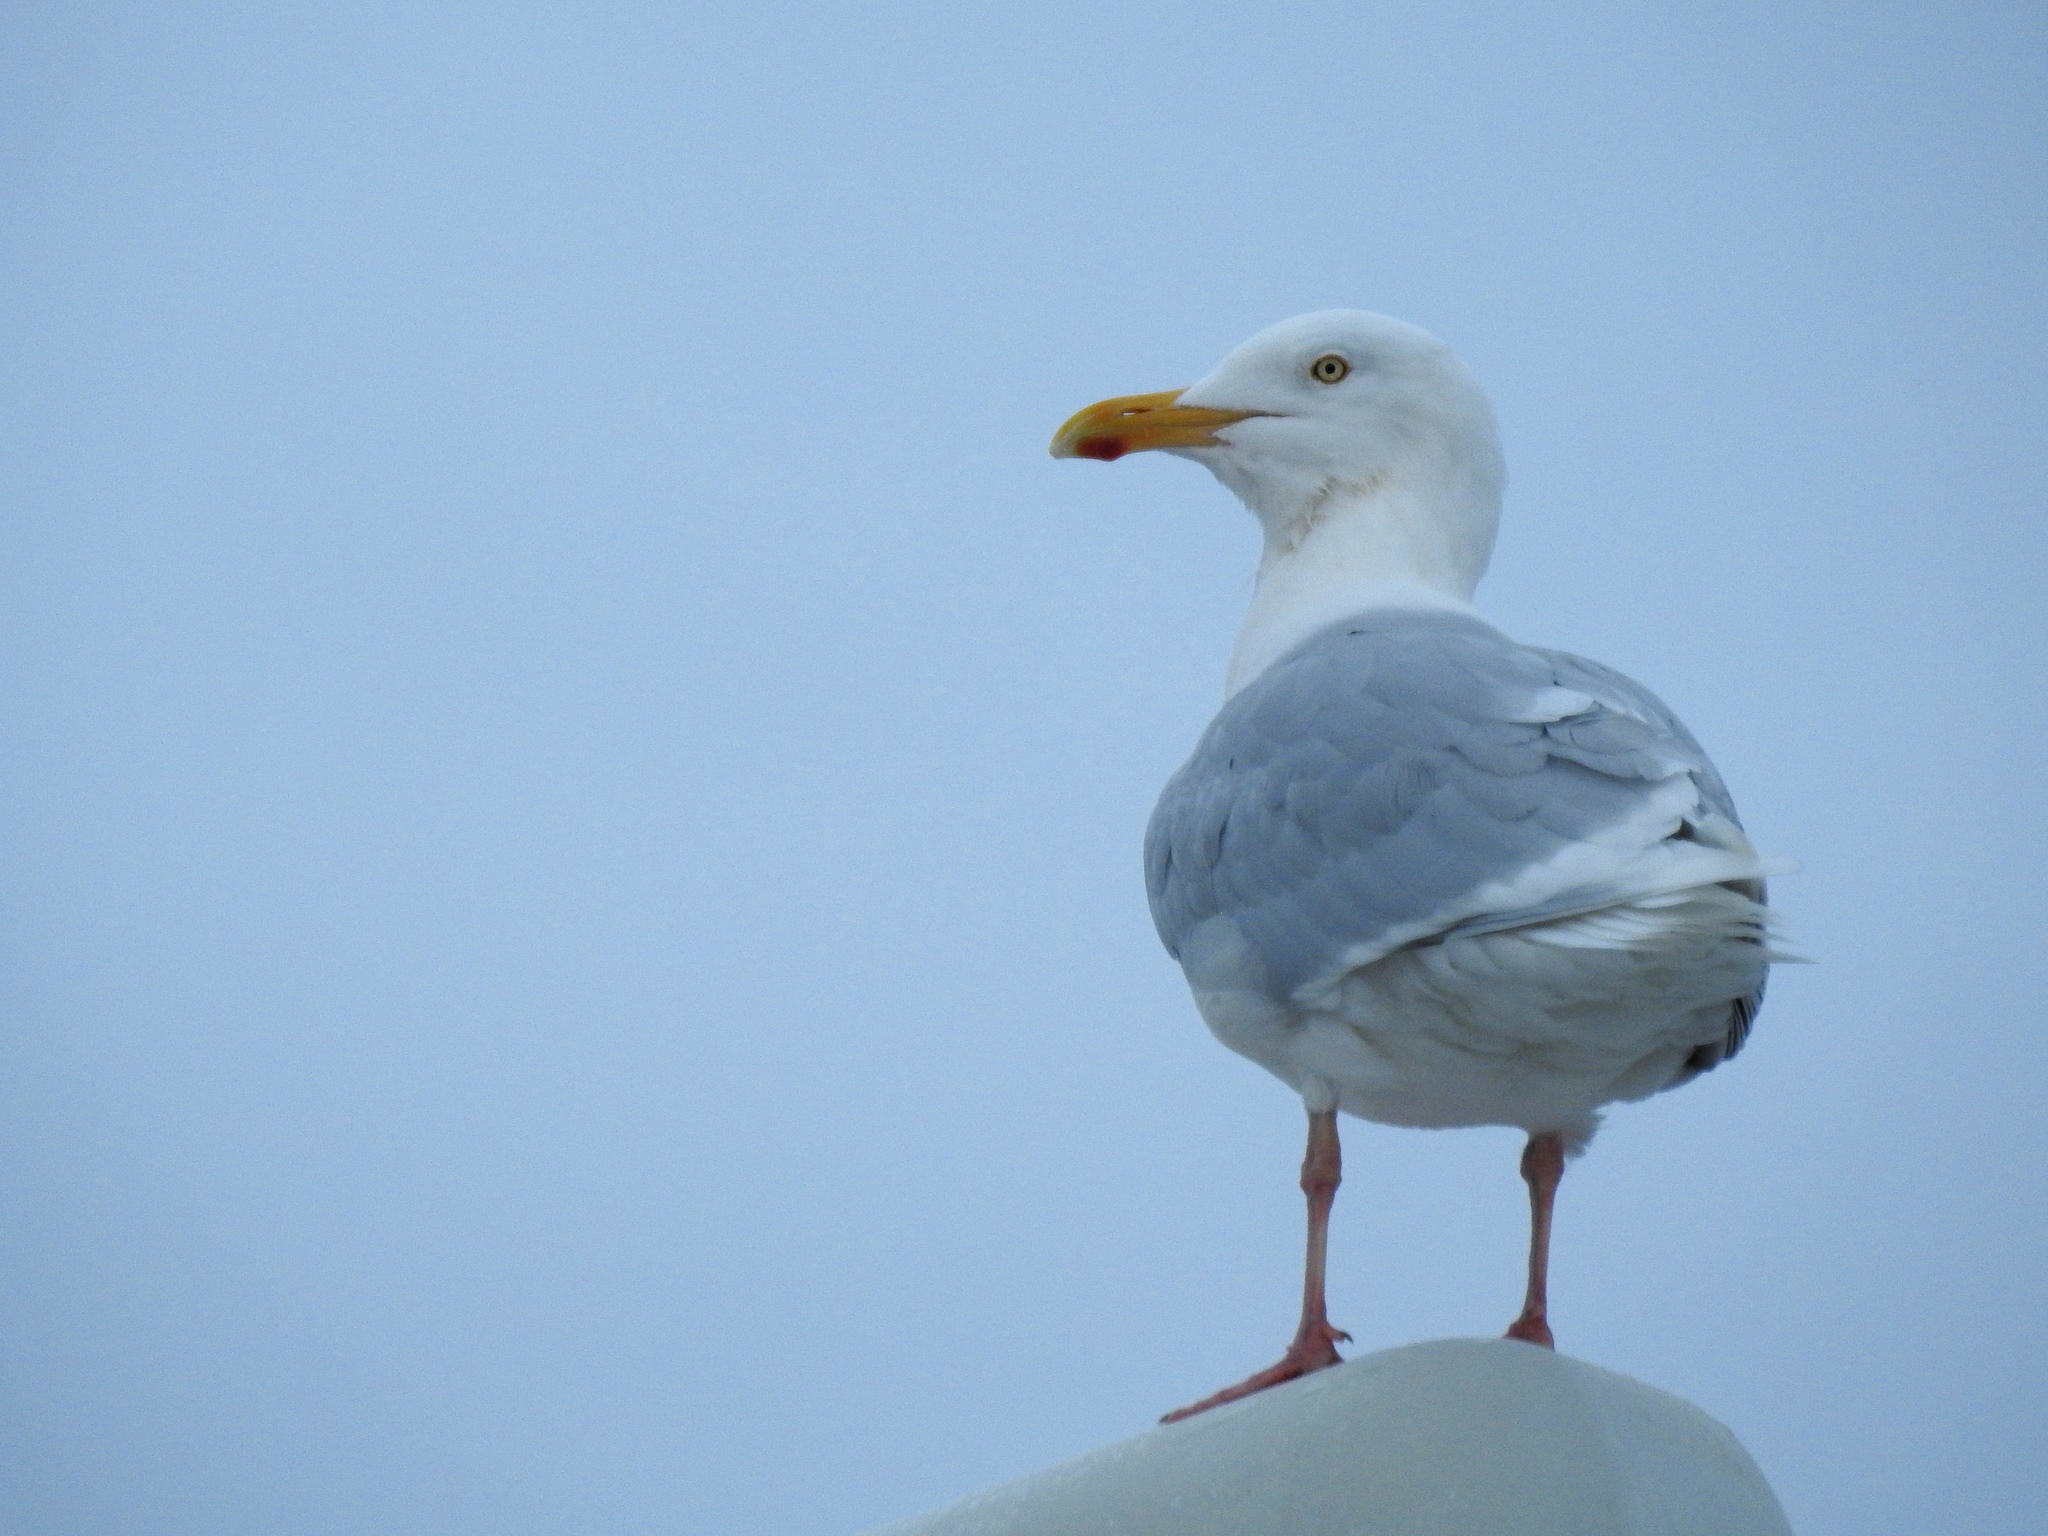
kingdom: Animalia
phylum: Chordata
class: Aves
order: Charadriiformes
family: Laridae
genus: Larus
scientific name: Larus hyperboreus
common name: Glaucous gull
